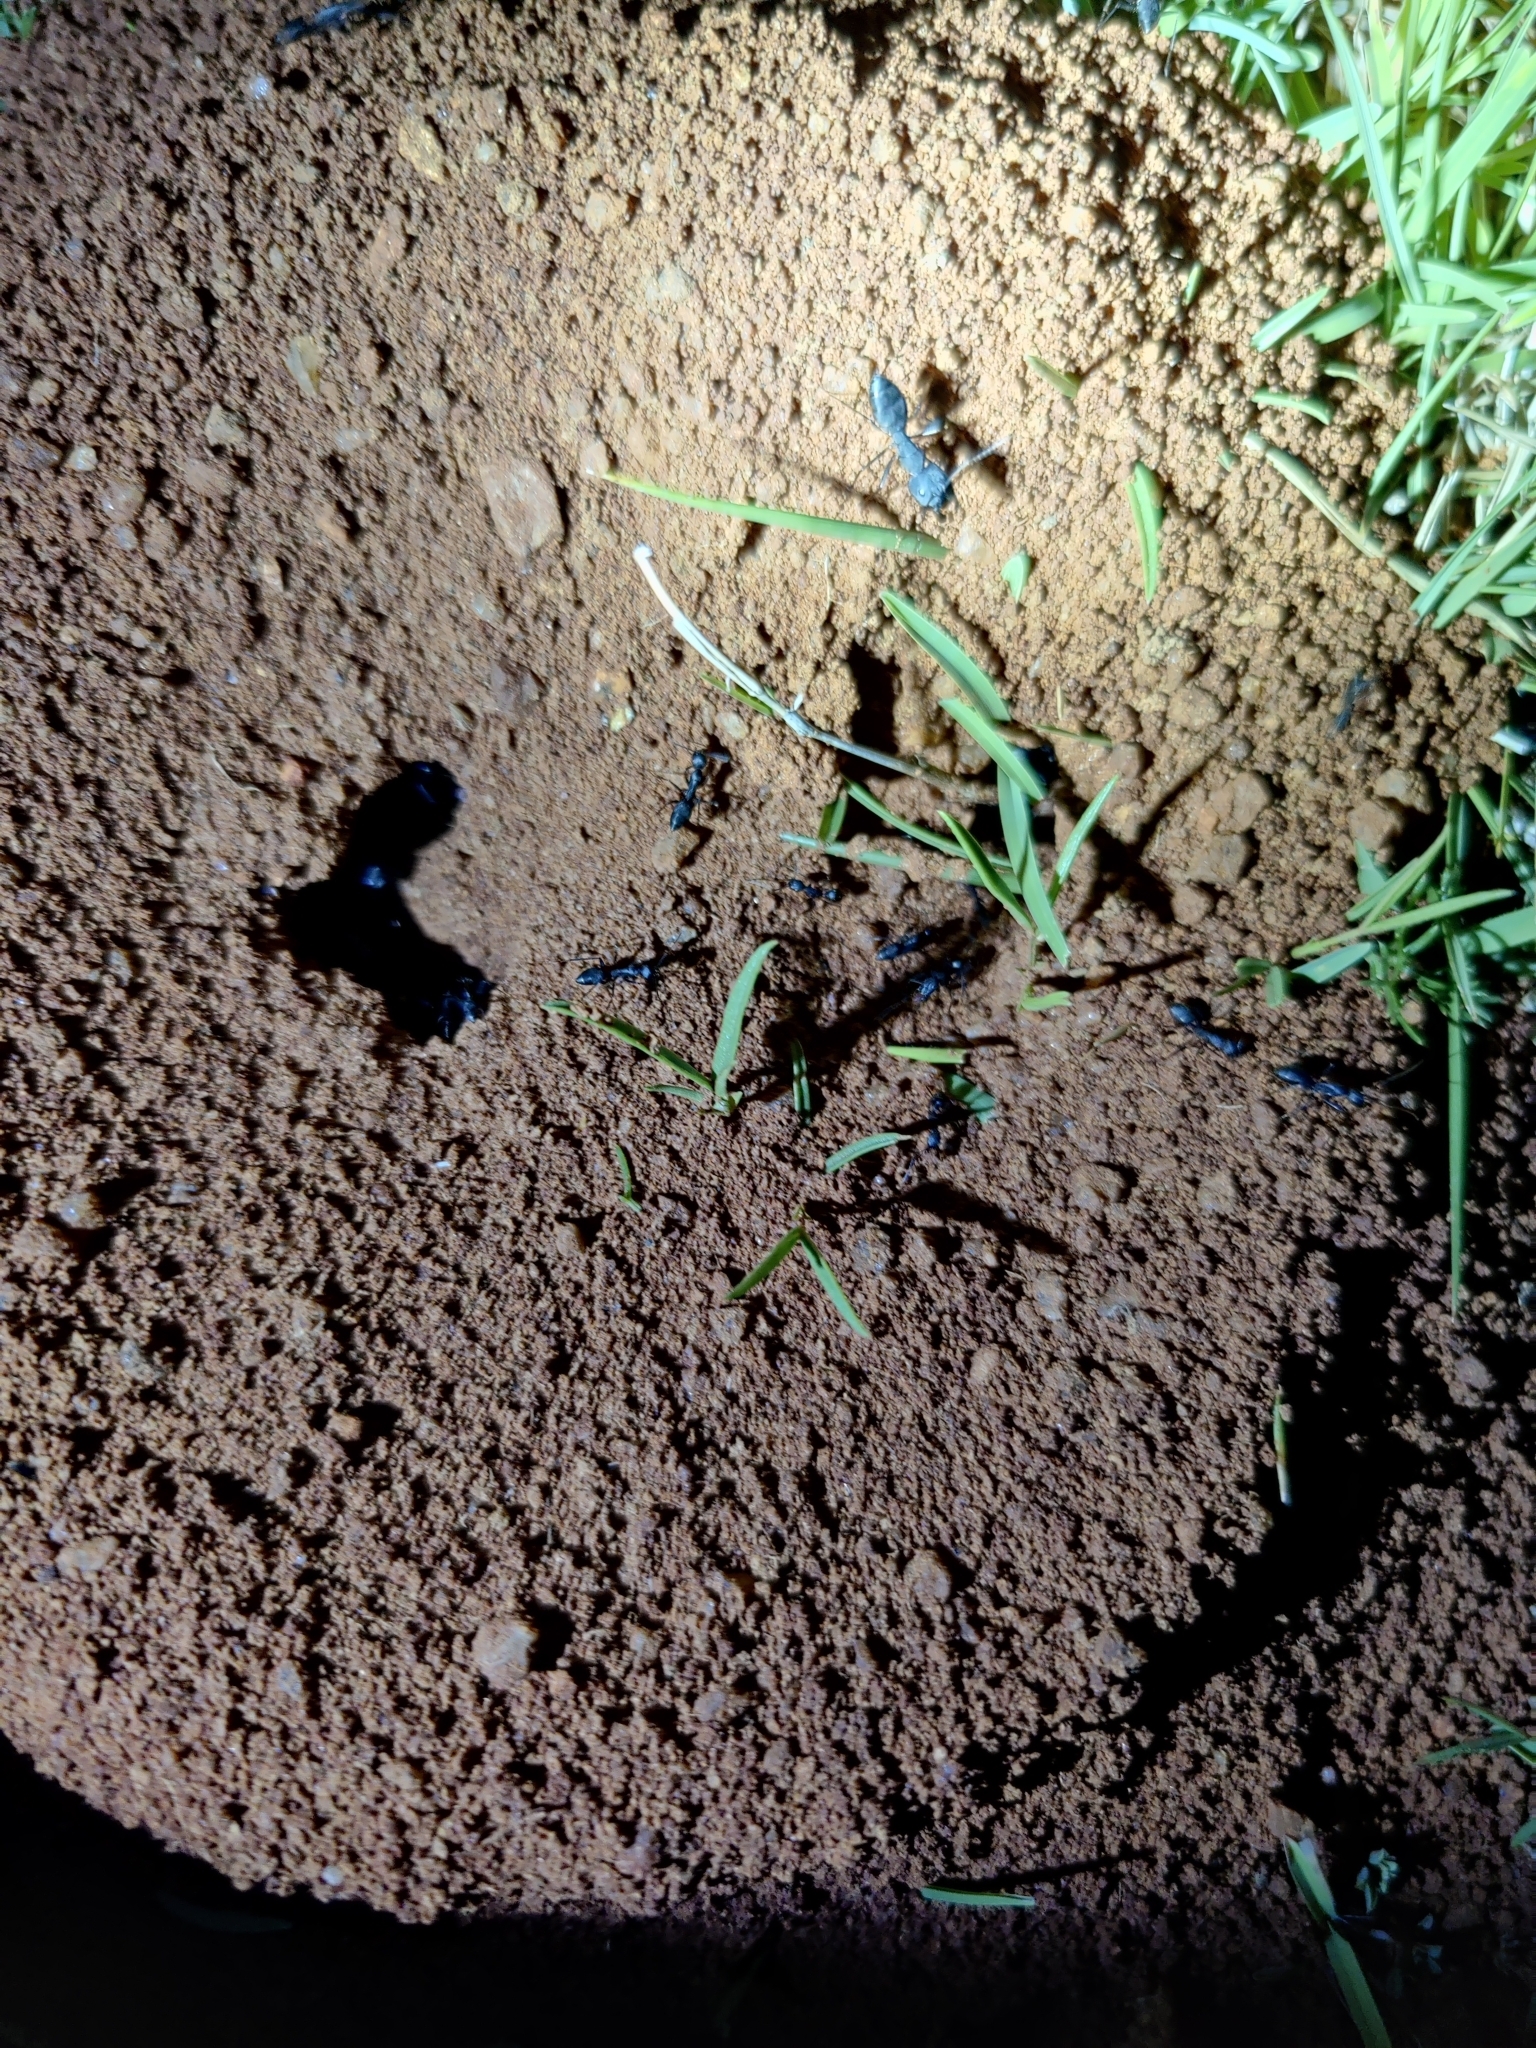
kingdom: Animalia
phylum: Arthropoda
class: Insecta
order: Hymenoptera
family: Formicidae
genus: Camponotus
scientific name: Camponotus compressus
